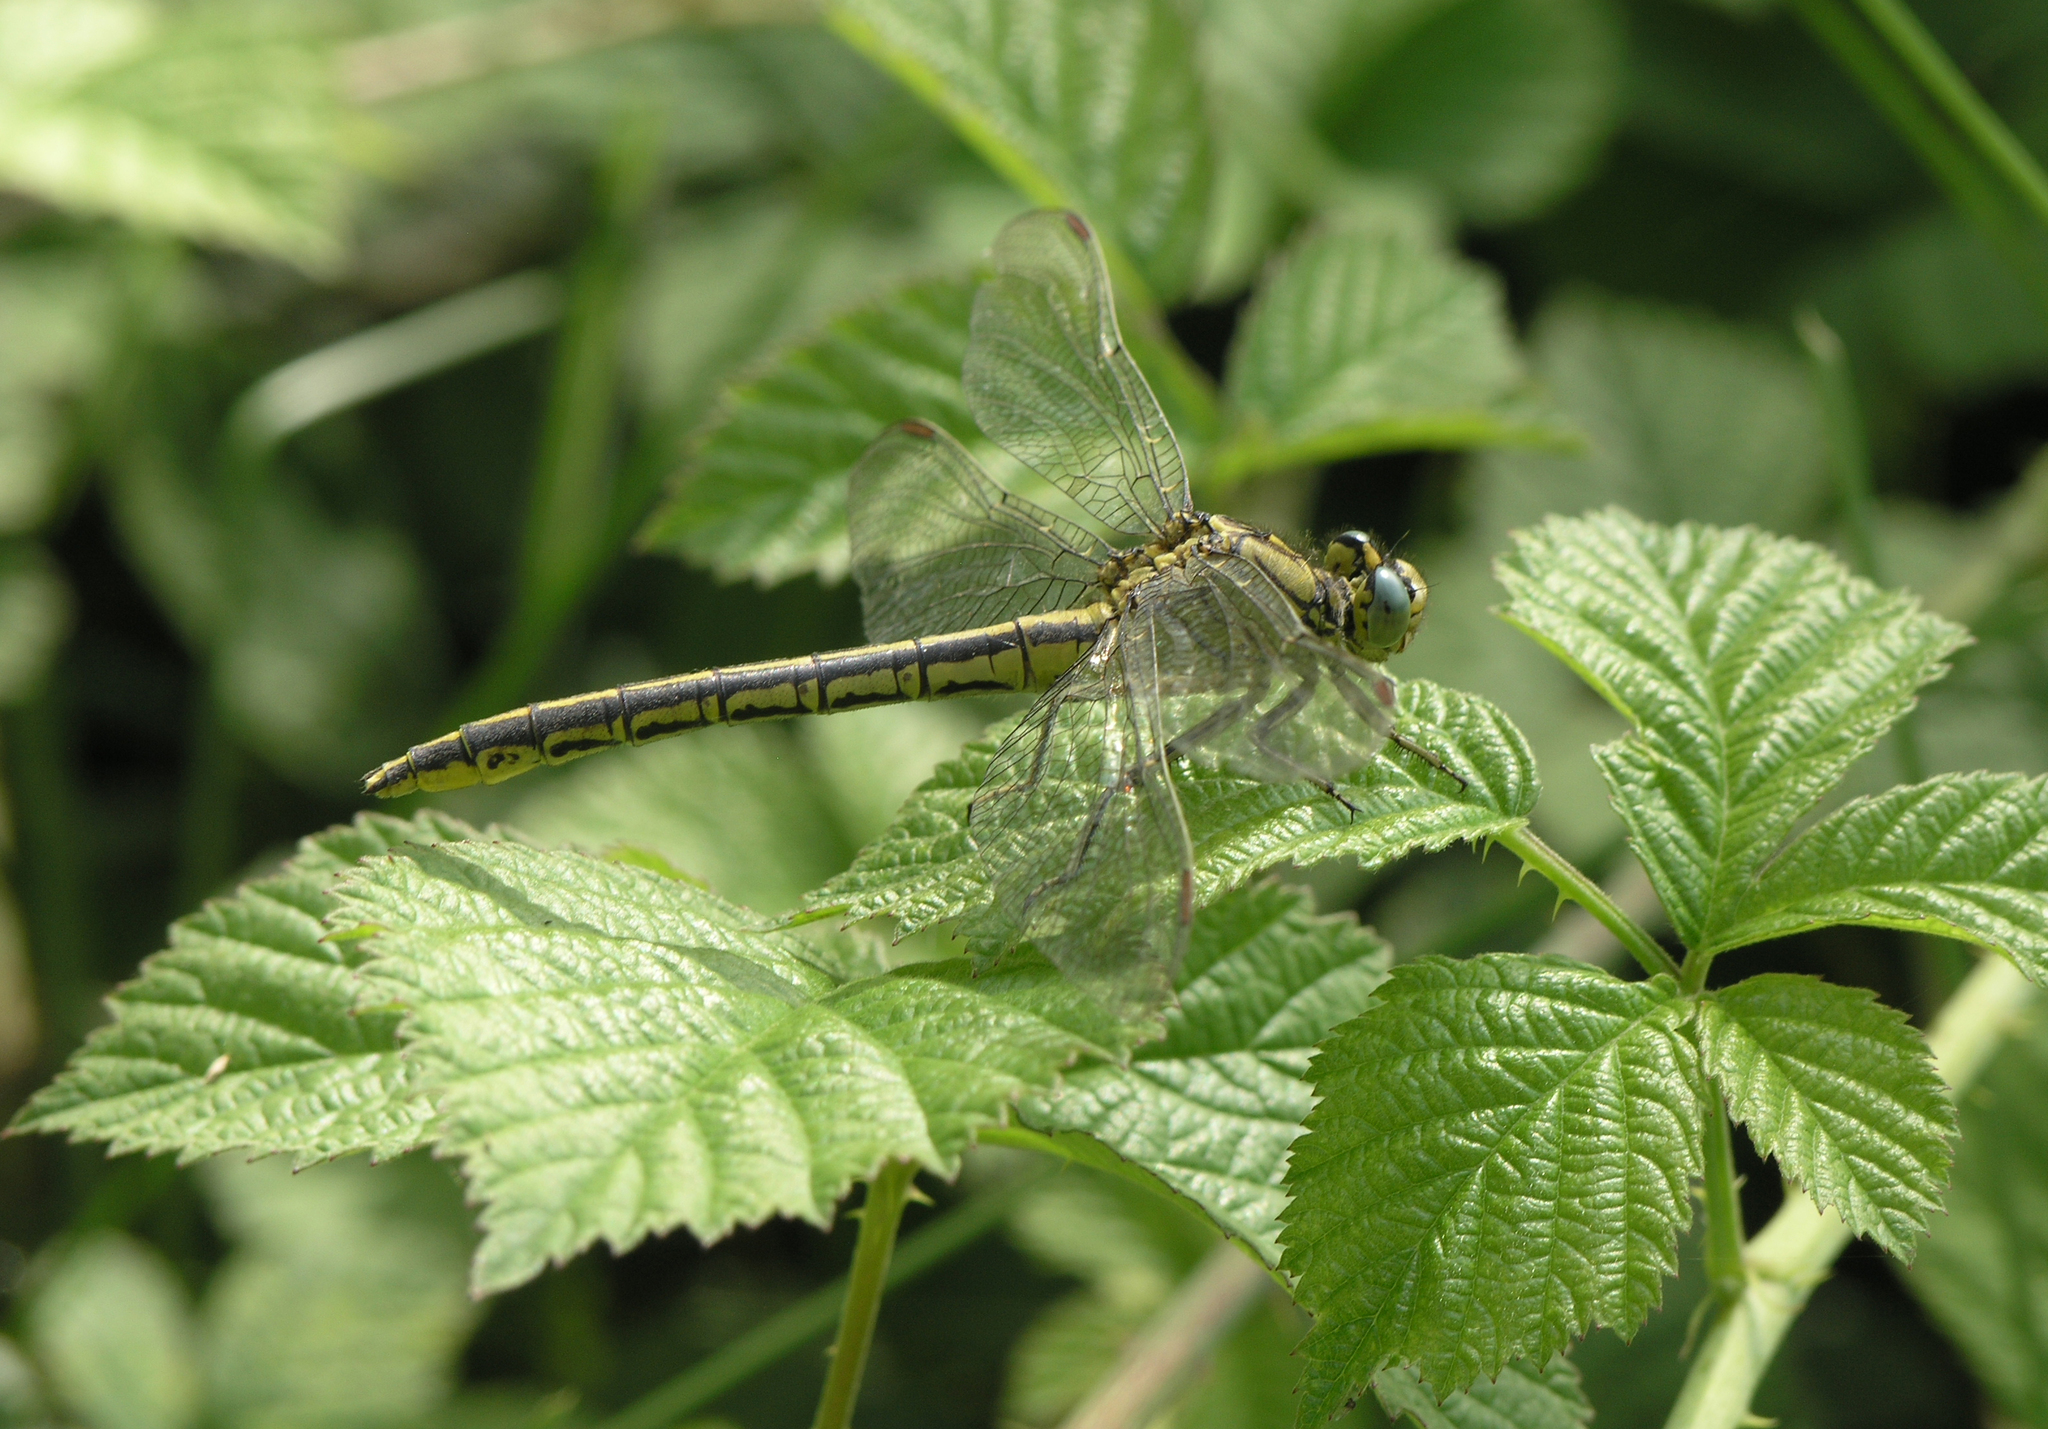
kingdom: Animalia
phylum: Arthropoda
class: Insecta
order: Odonata
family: Gomphidae
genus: Gomphus
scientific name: Gomphus pulchellus
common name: Western clubtail
